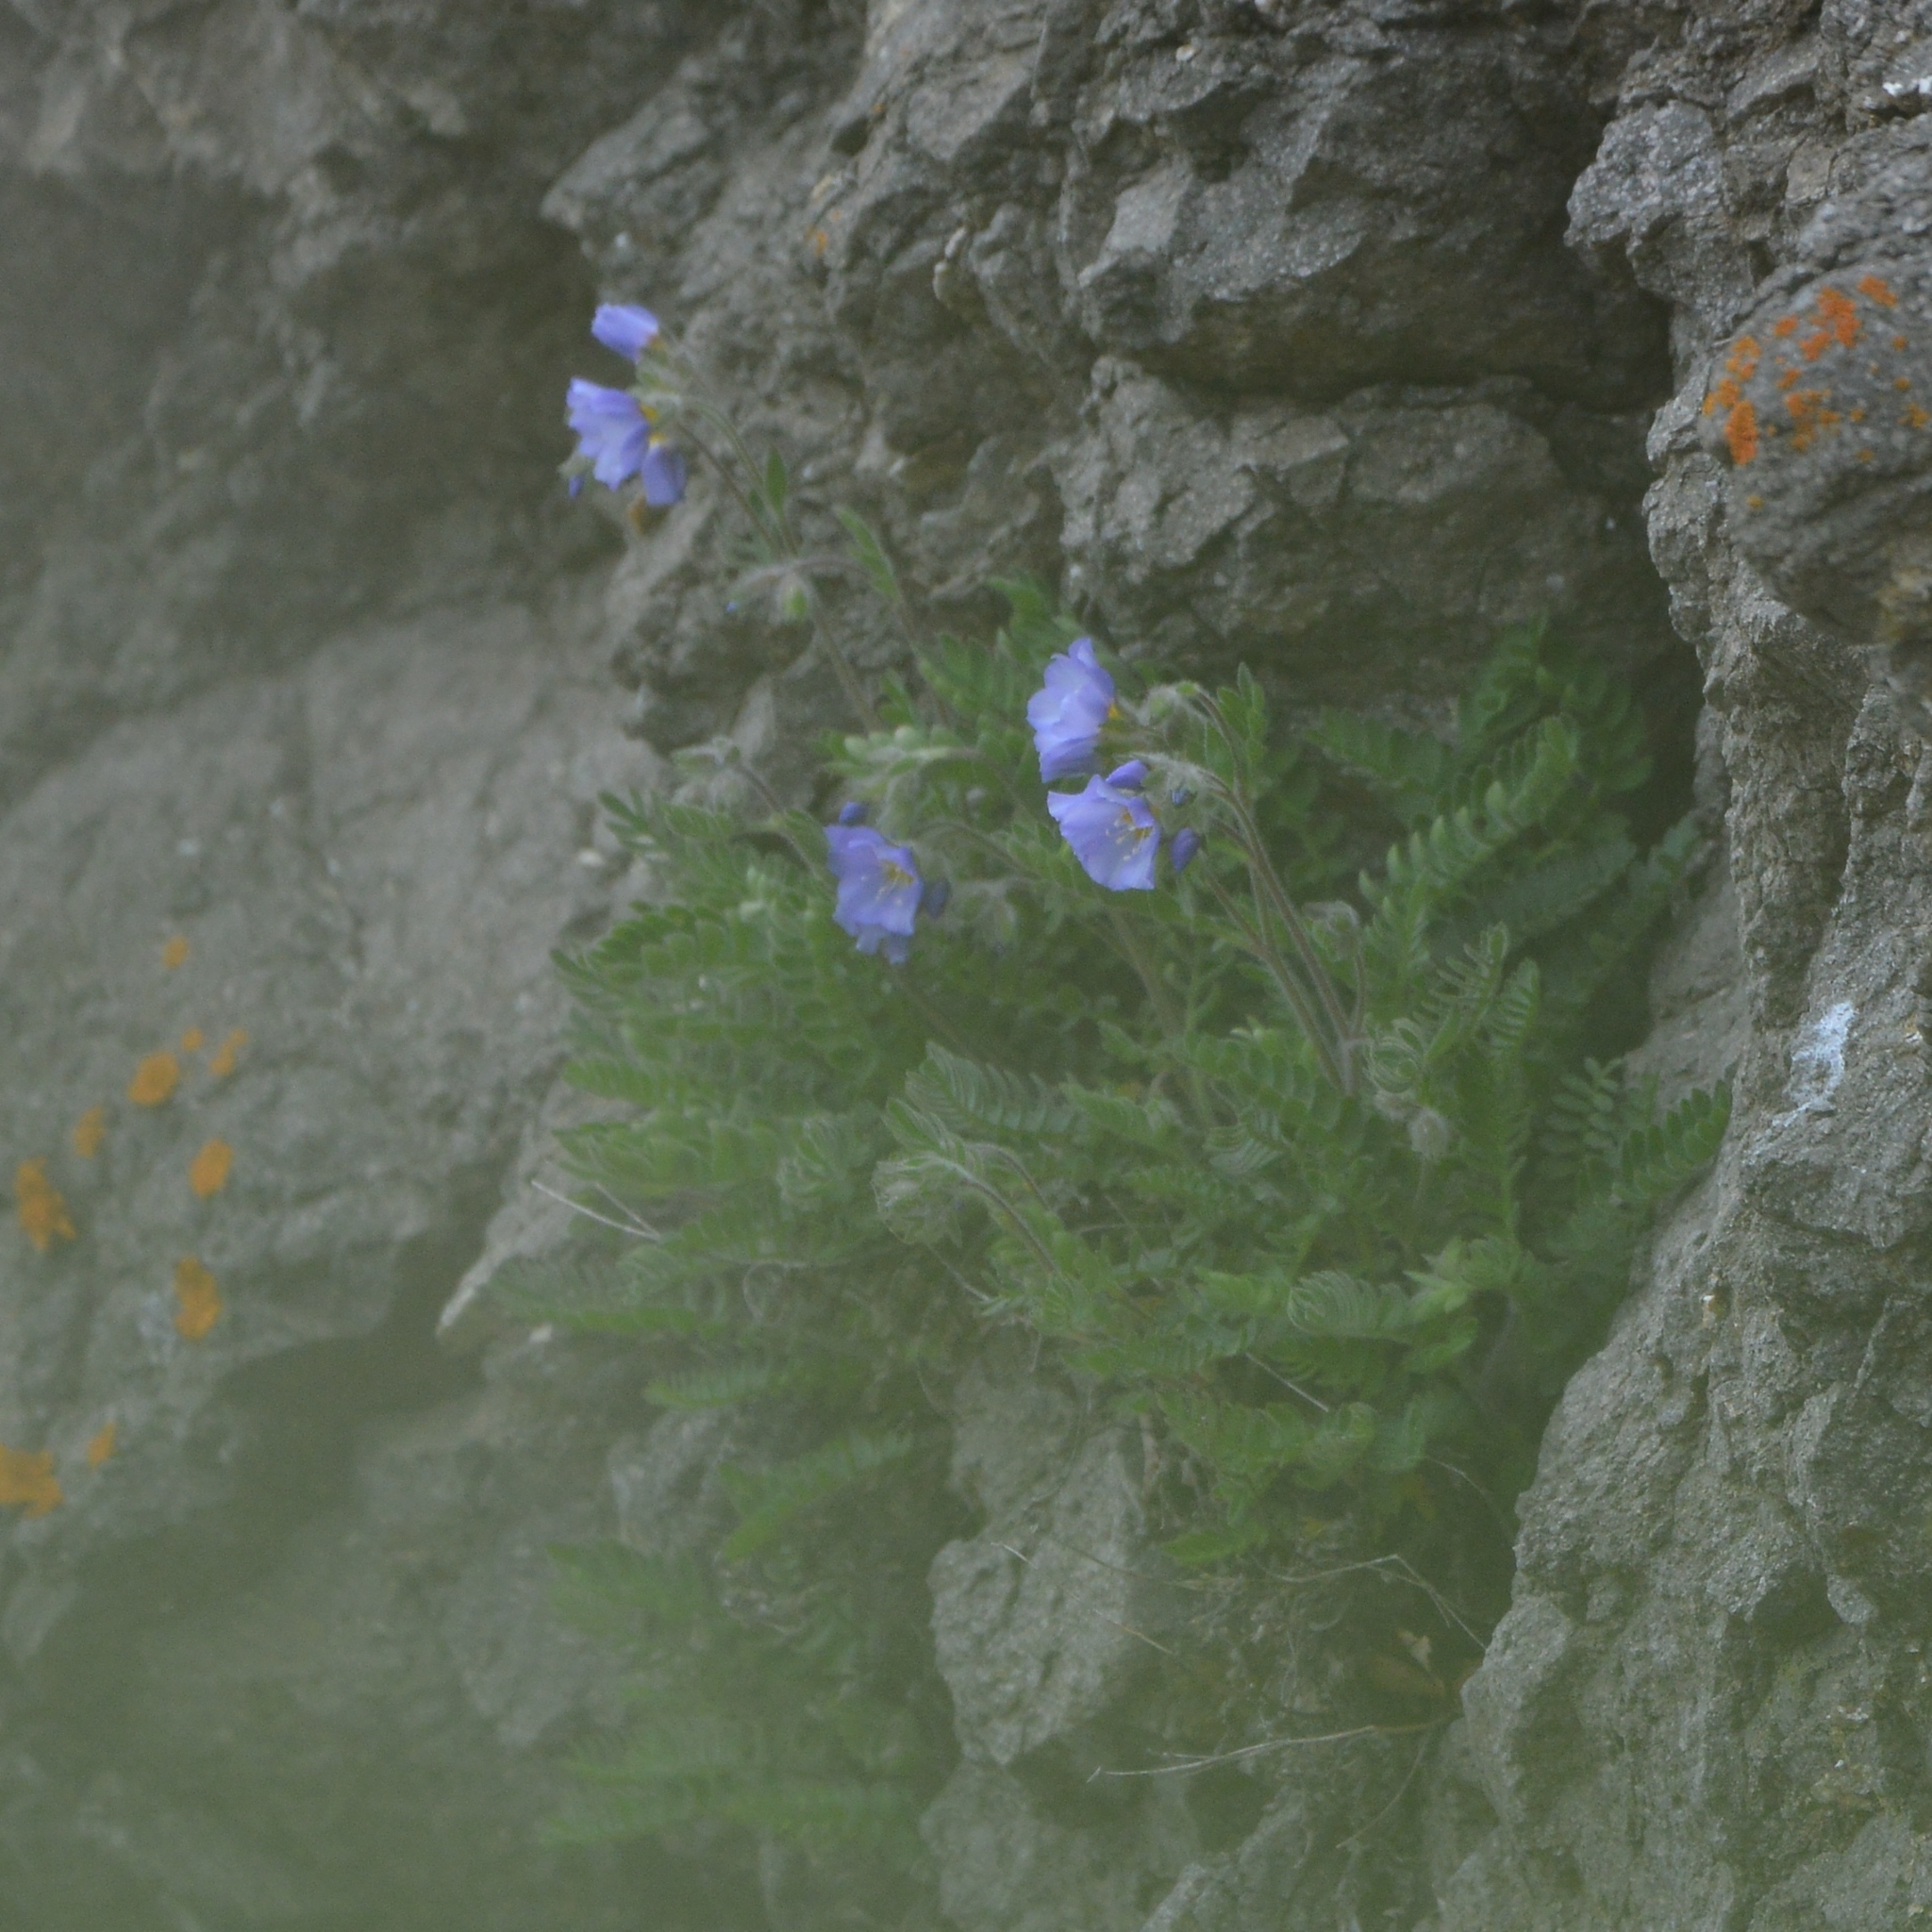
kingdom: Plantae
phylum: Tracheophyta
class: Magnoliopsida
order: Ericales
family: Polemoniaceae
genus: Polemonium
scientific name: Polemonium boreale
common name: Boreal jacob's-ladder
